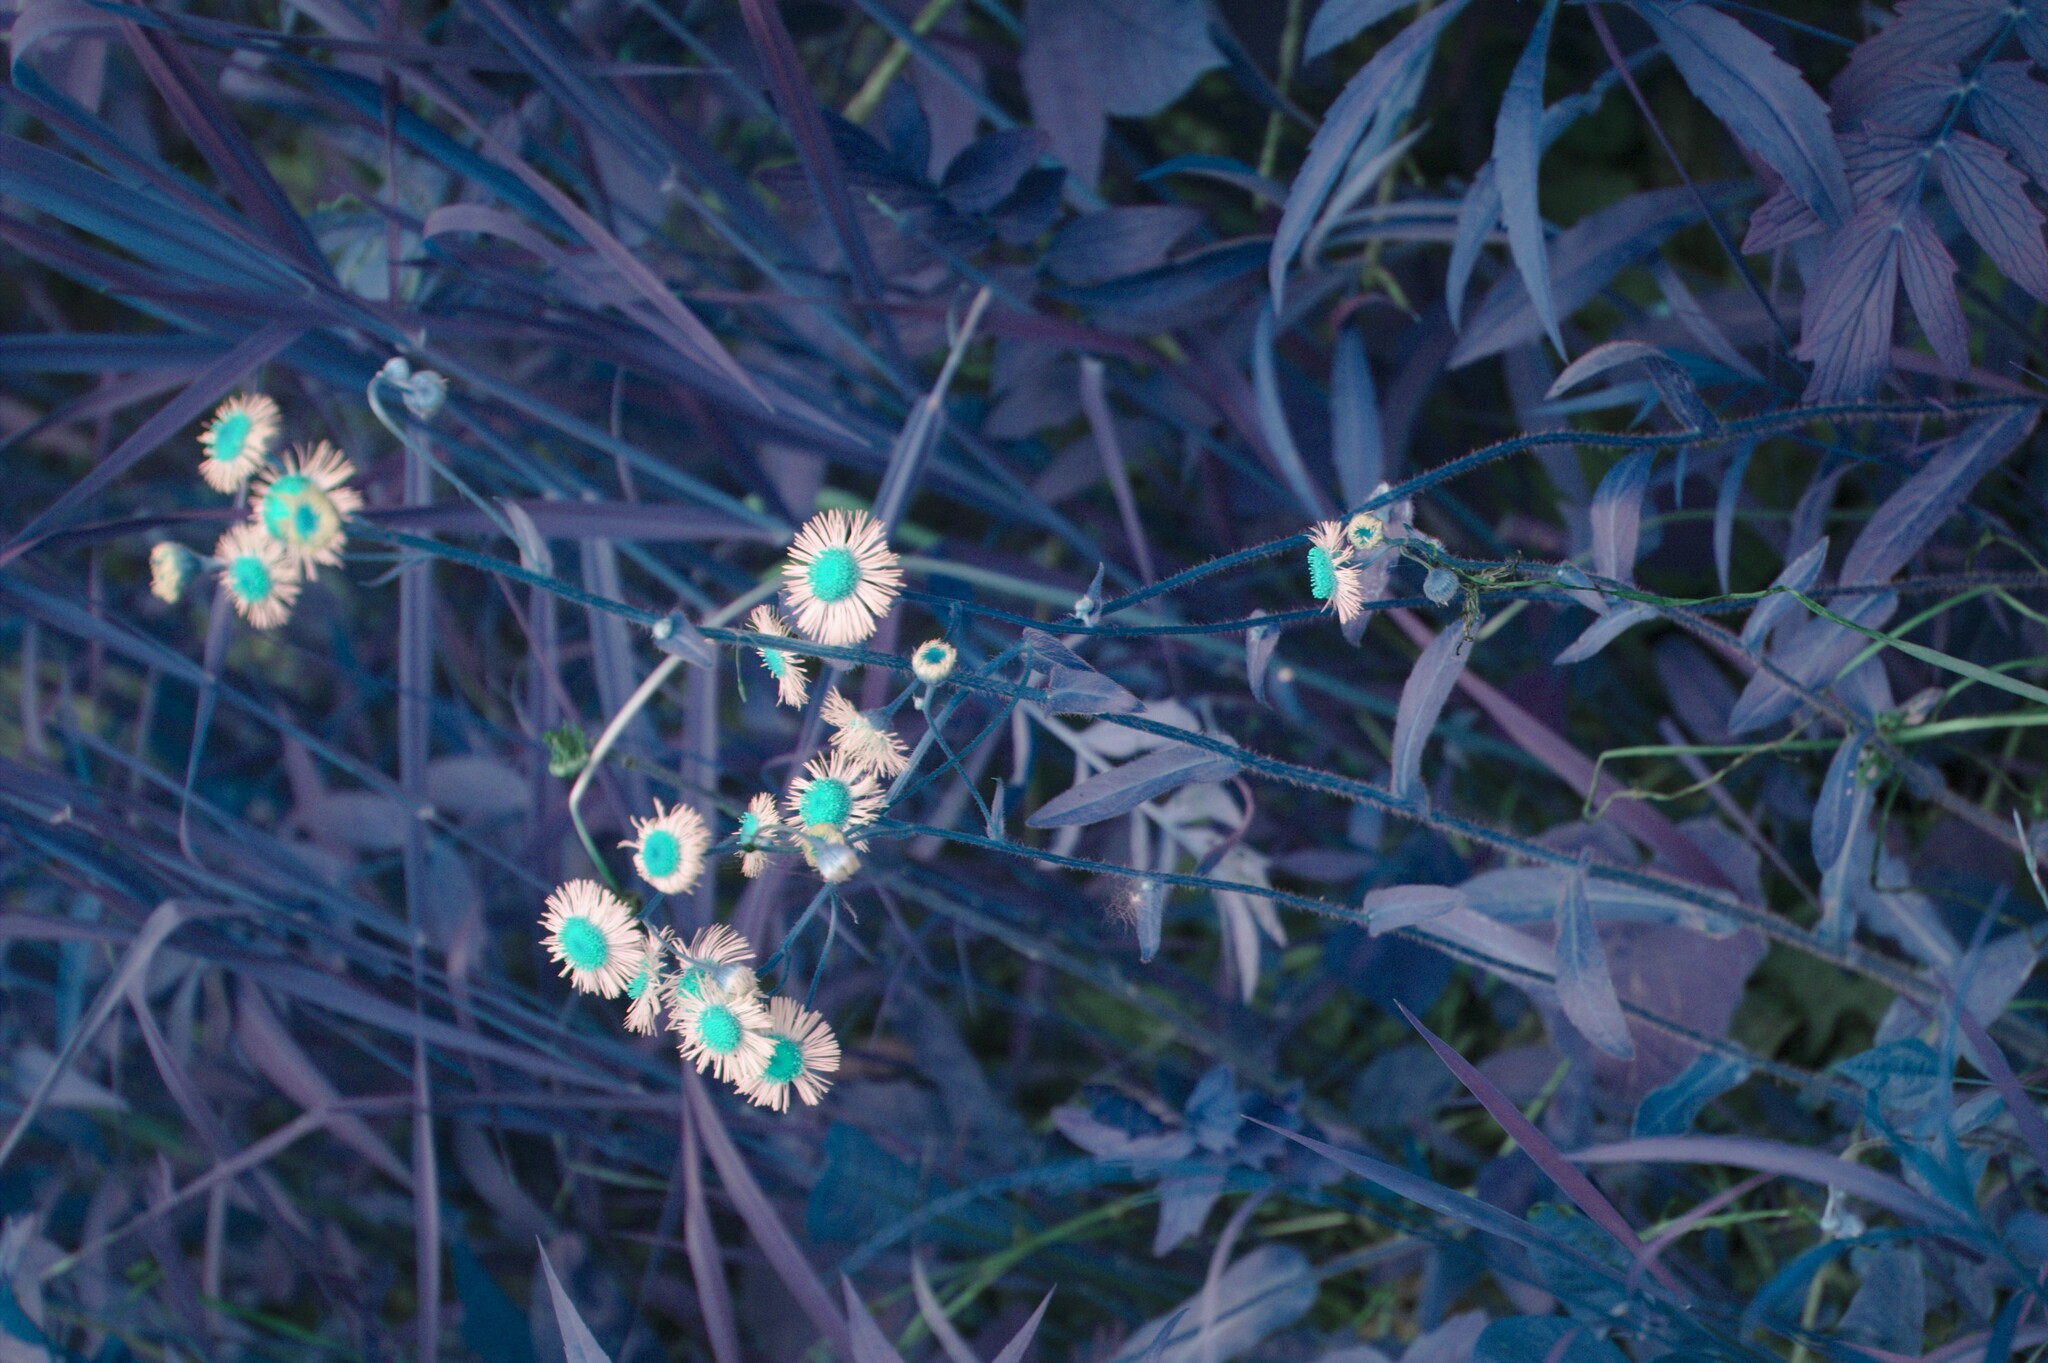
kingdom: Plantae
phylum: Tracheophyta
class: Magnoliopsida
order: Asterales
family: Asteraceae
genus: Erigeron
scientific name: Erigeron philadelphicus
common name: Robin's-plantain
